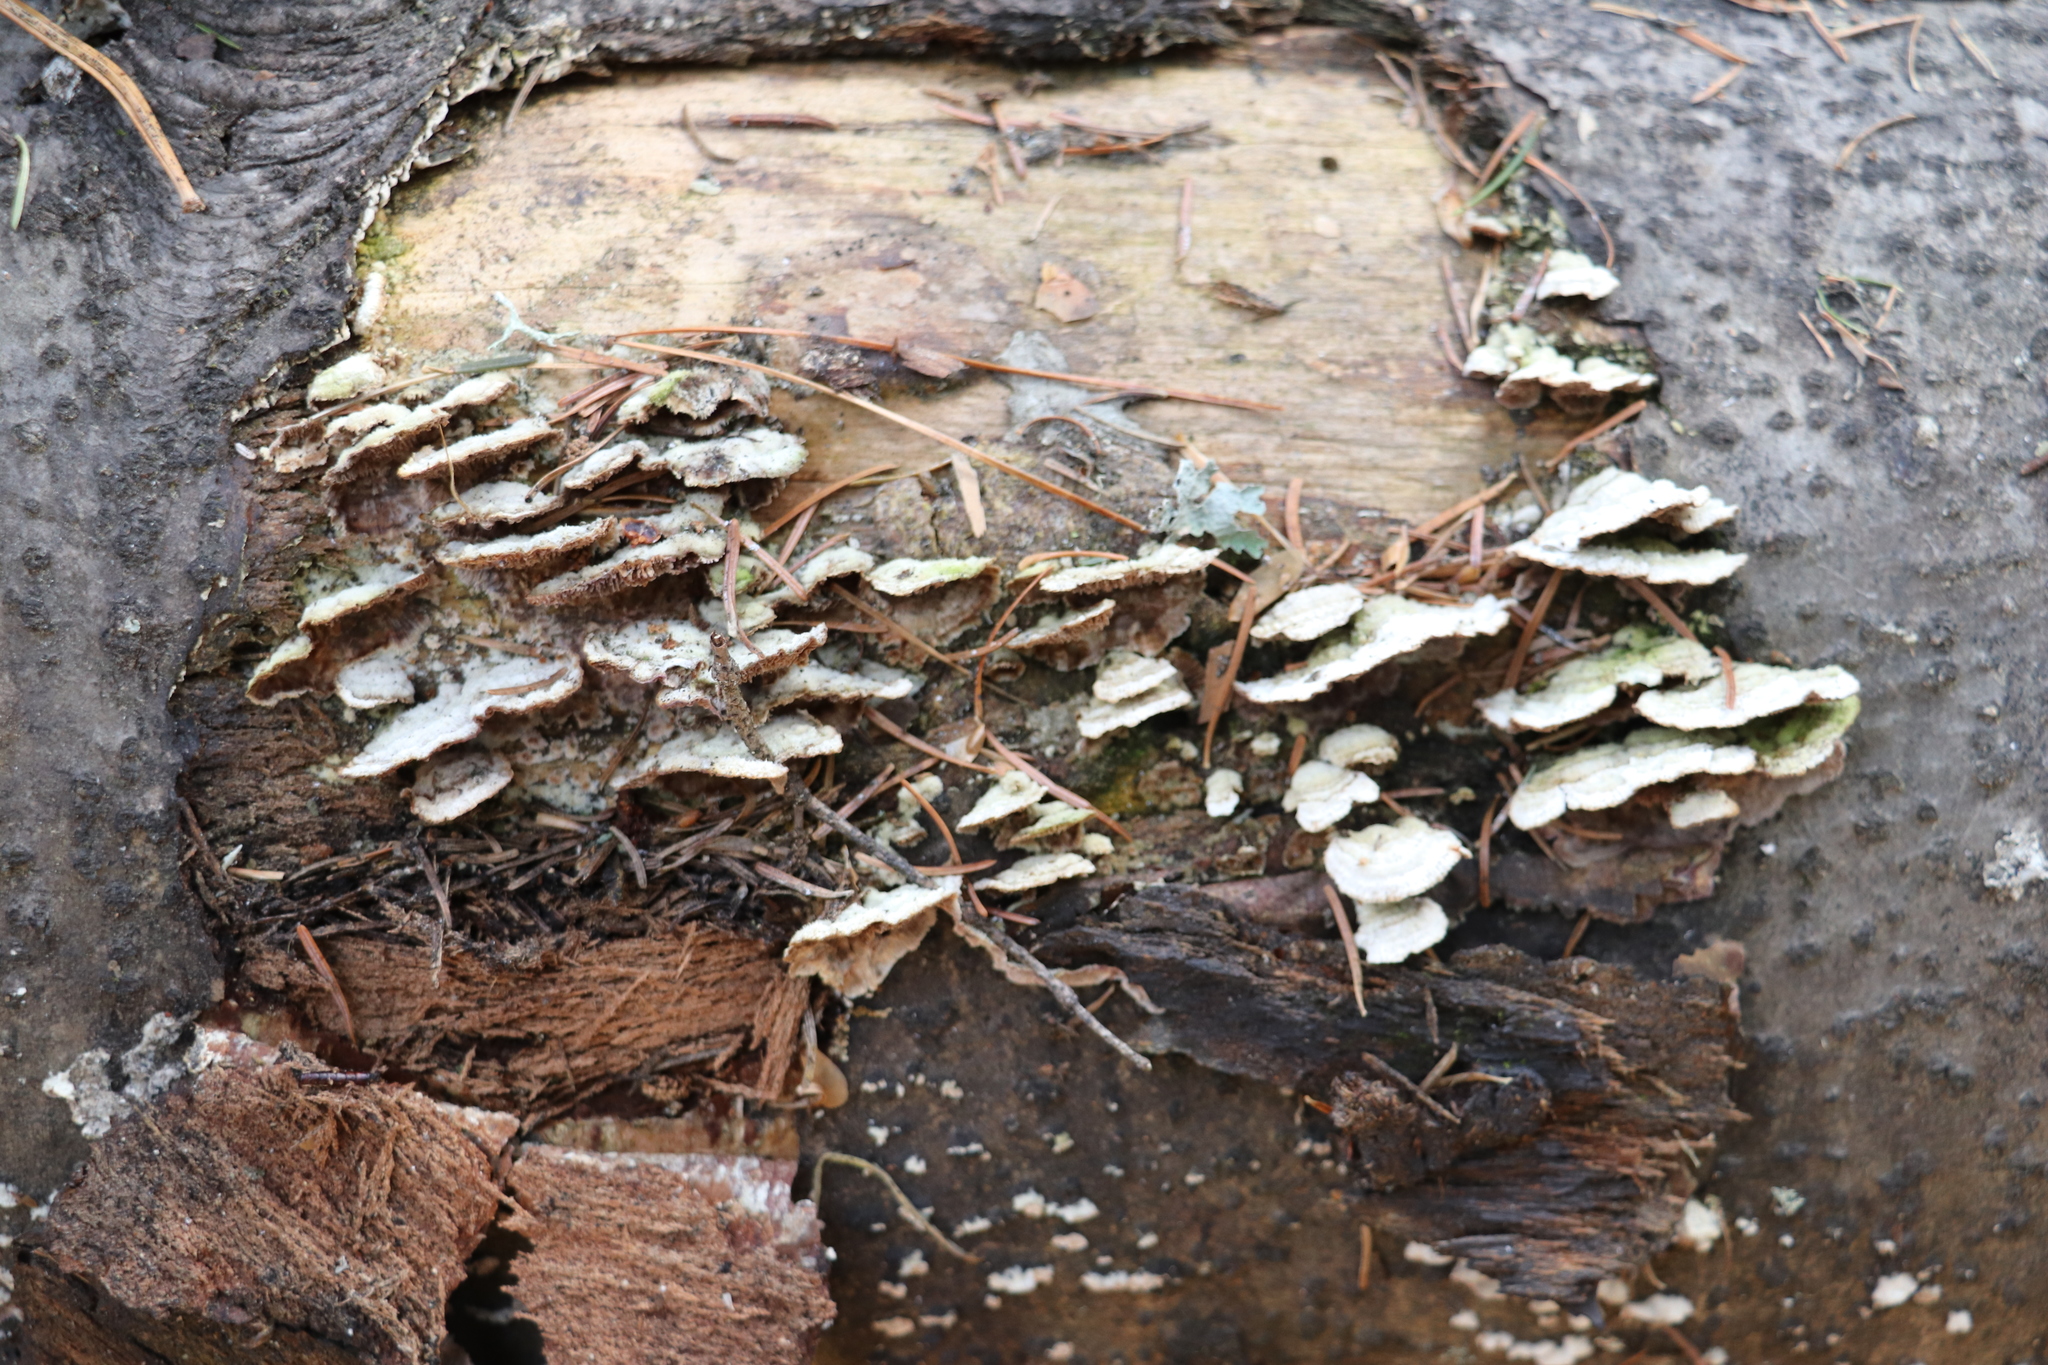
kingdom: Fungi
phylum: Basidiomycota
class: Agaricomycetes
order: Hymenochaetales
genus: Trichaptum
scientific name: Trichaptum fuscoviolaceum
